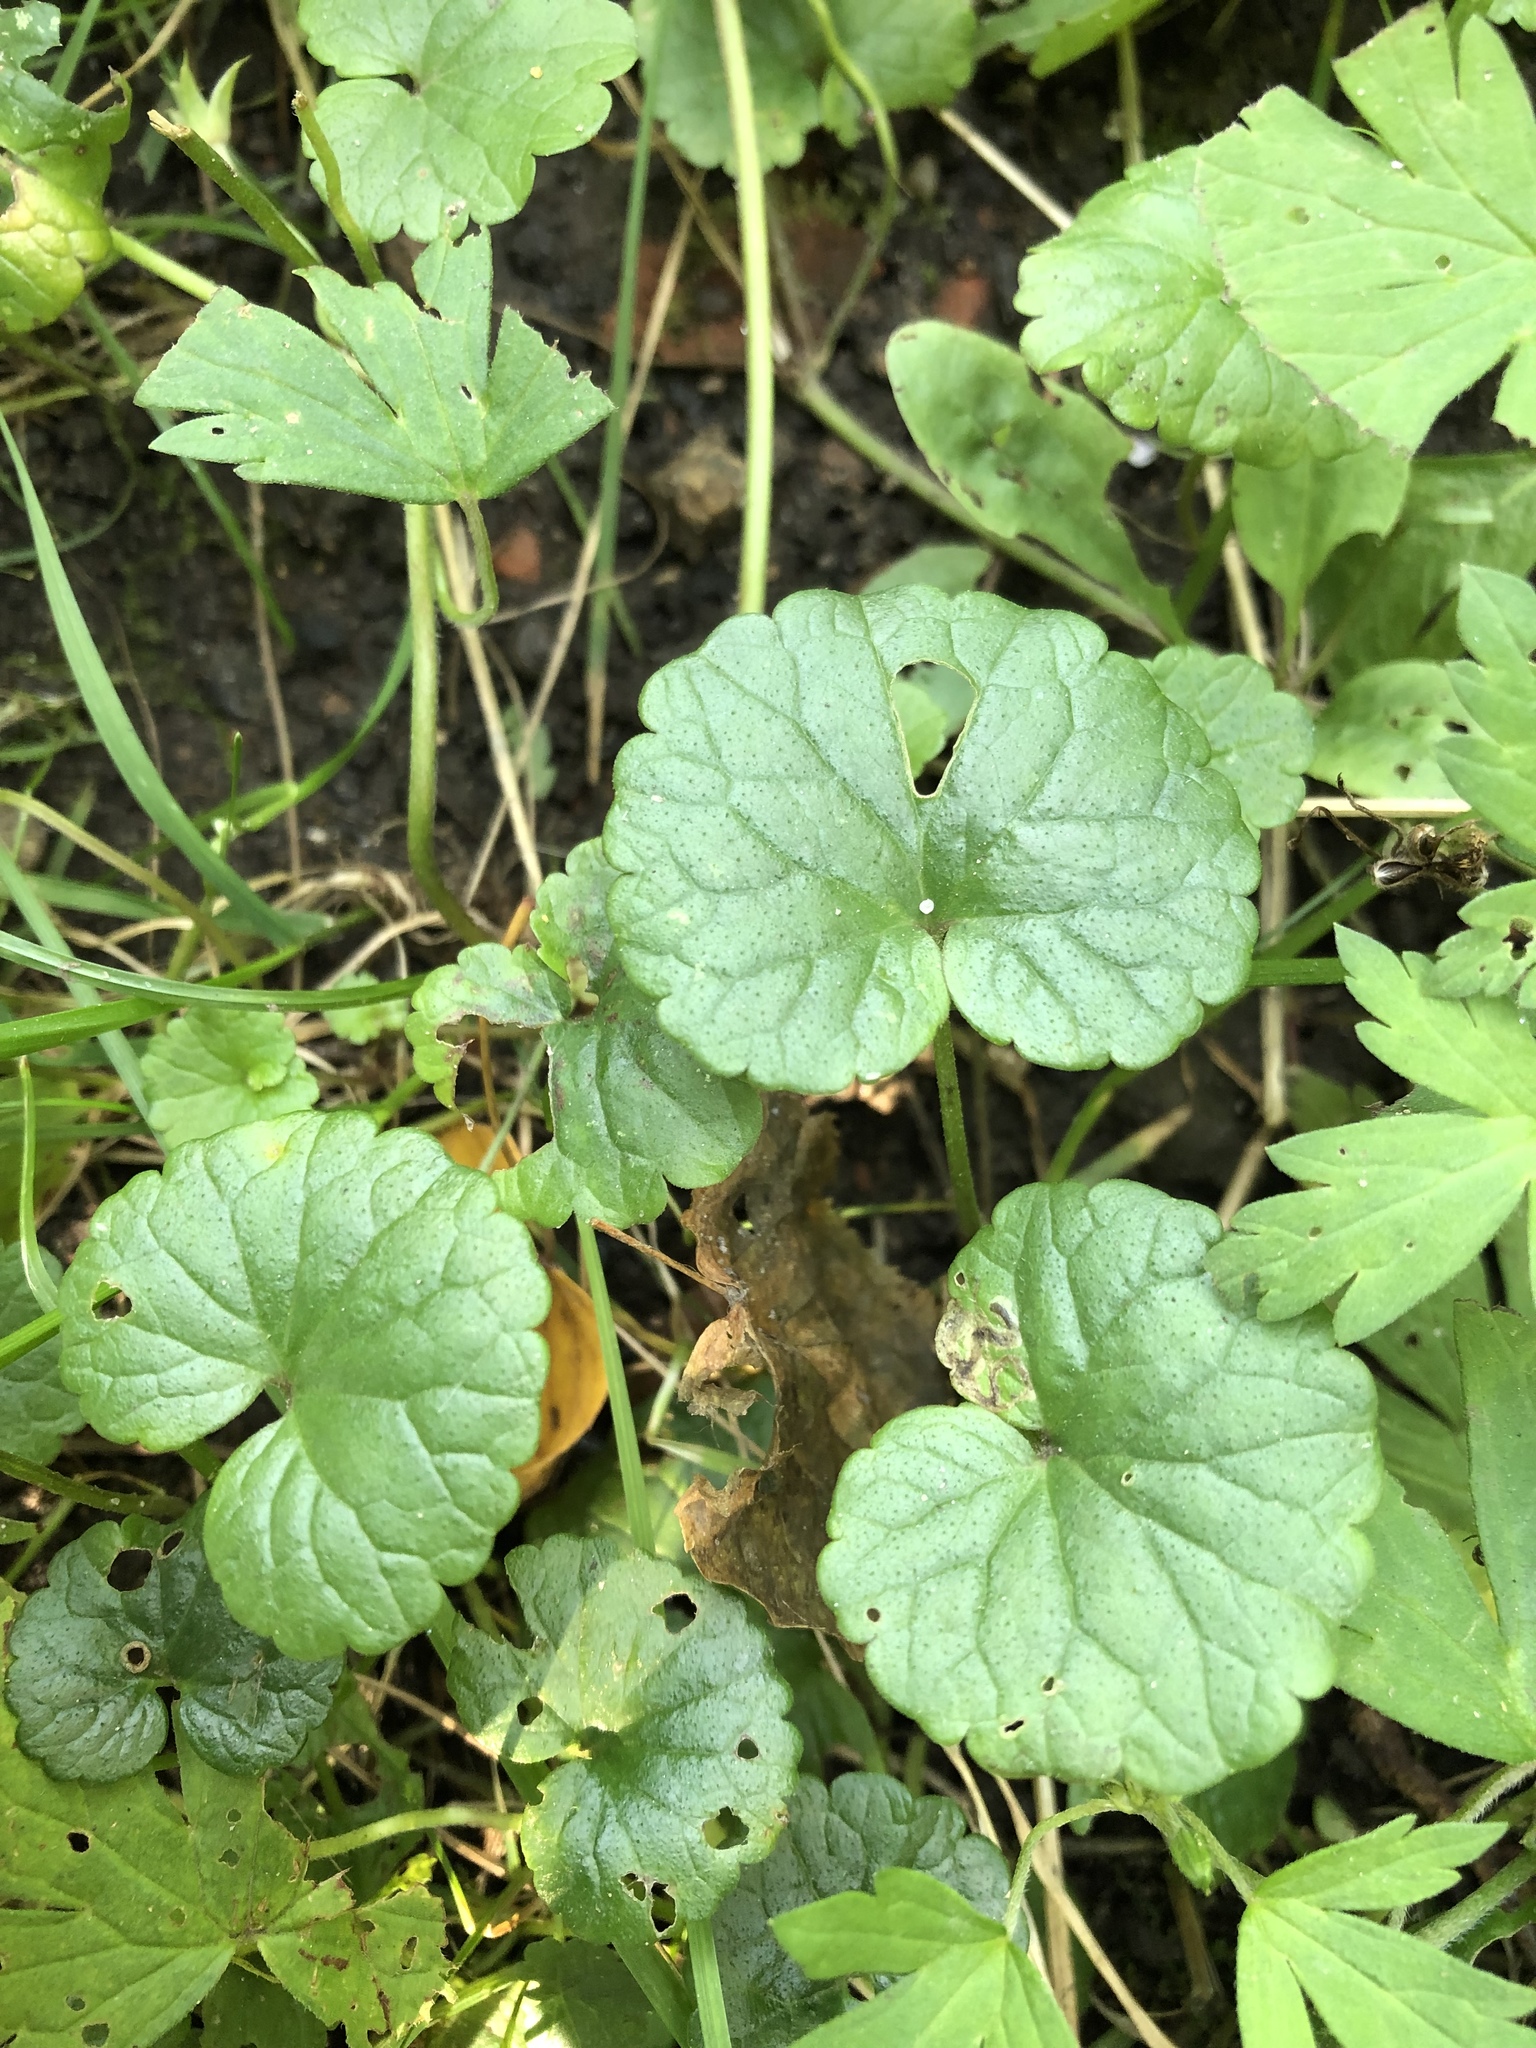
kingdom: Plantae
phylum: Tracheophyta
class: Magnoliopsida
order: Lamiales
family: Lamiaceae
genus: Glechoma
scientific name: Glechoma hederacea
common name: Ground ivy
